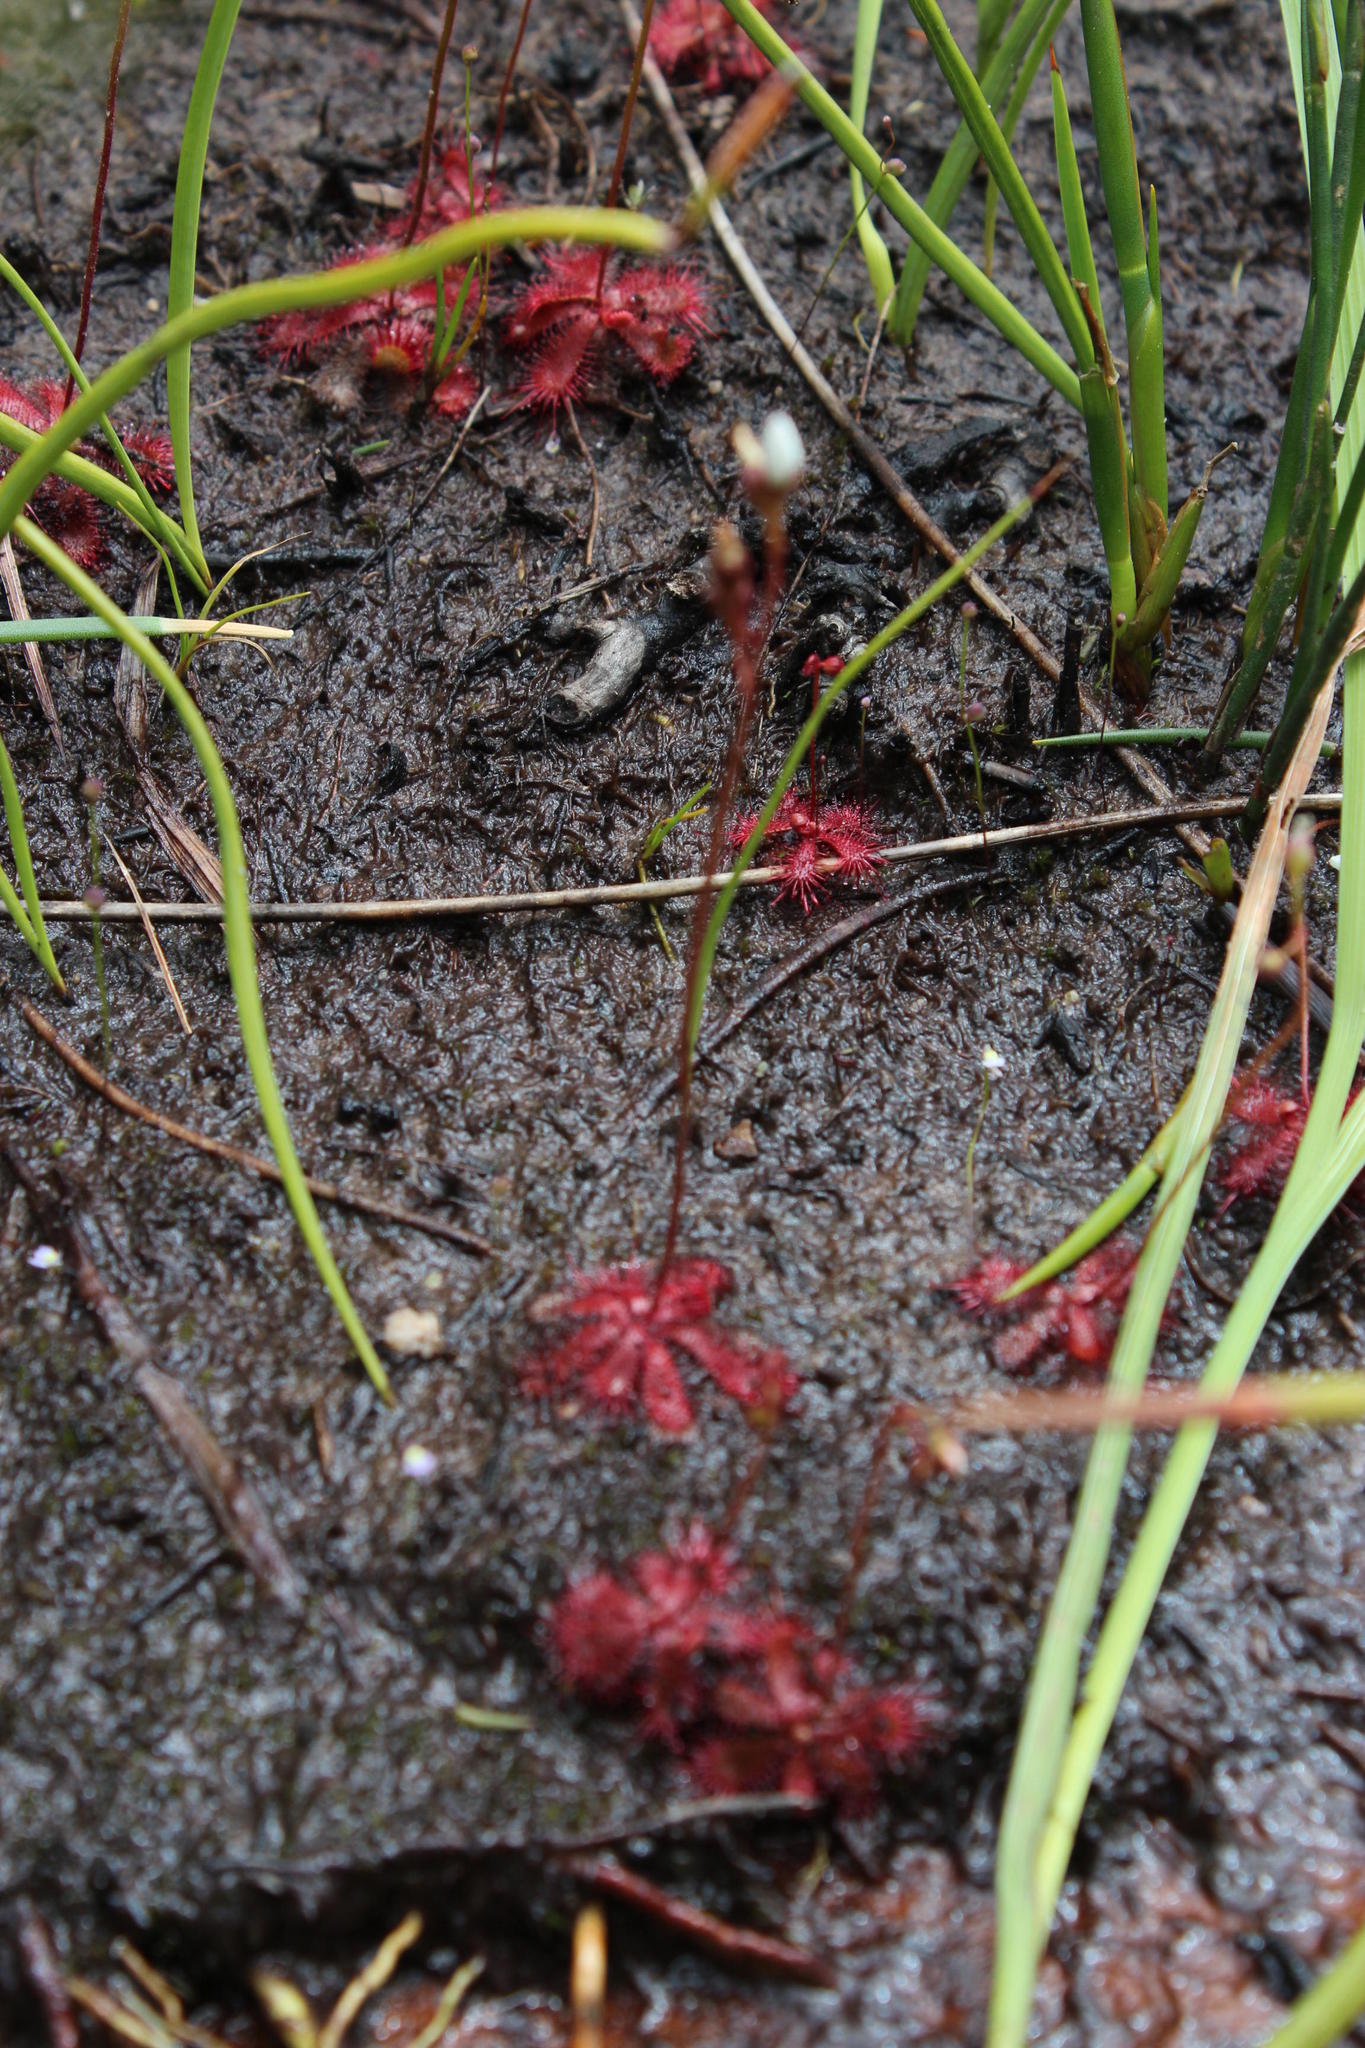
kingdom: Plantae
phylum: Tracheophyta
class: Magnoliopsida
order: Caryophyllales
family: Droseraceae
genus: Drosera
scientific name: Drosera trinervia
